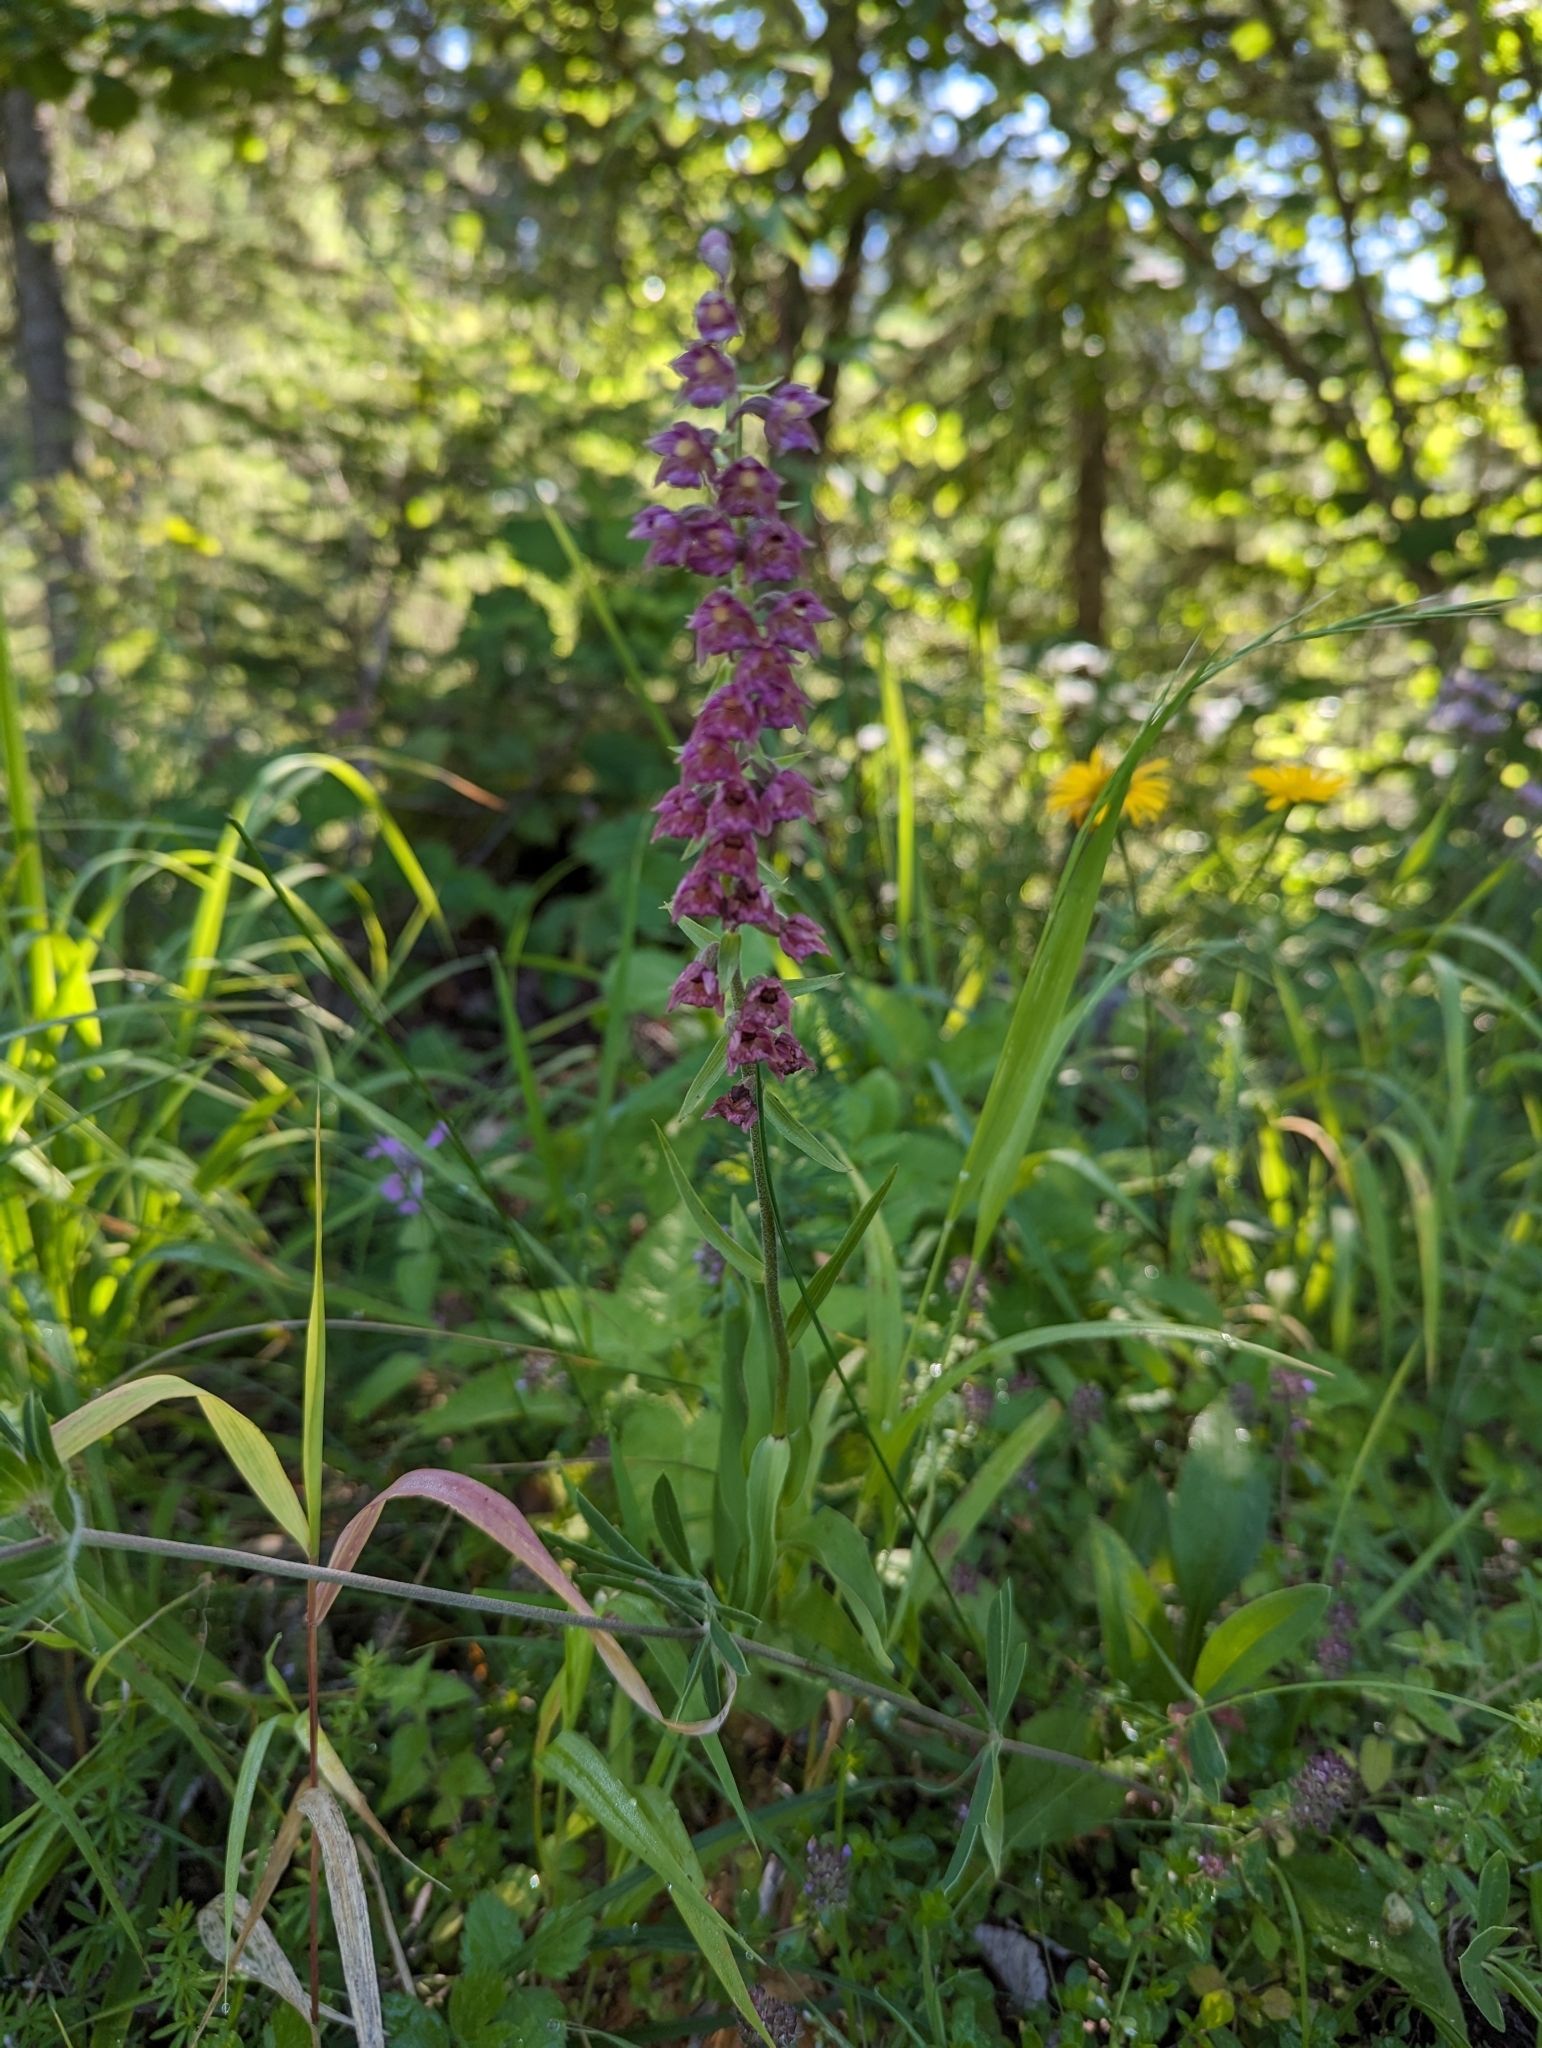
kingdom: Plantae
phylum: Tracheophyta
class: Liliopsida
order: Asparagales
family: Orchidaceae
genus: Epipactis
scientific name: Epipactis atrorubens
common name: Dark-red helleborine
